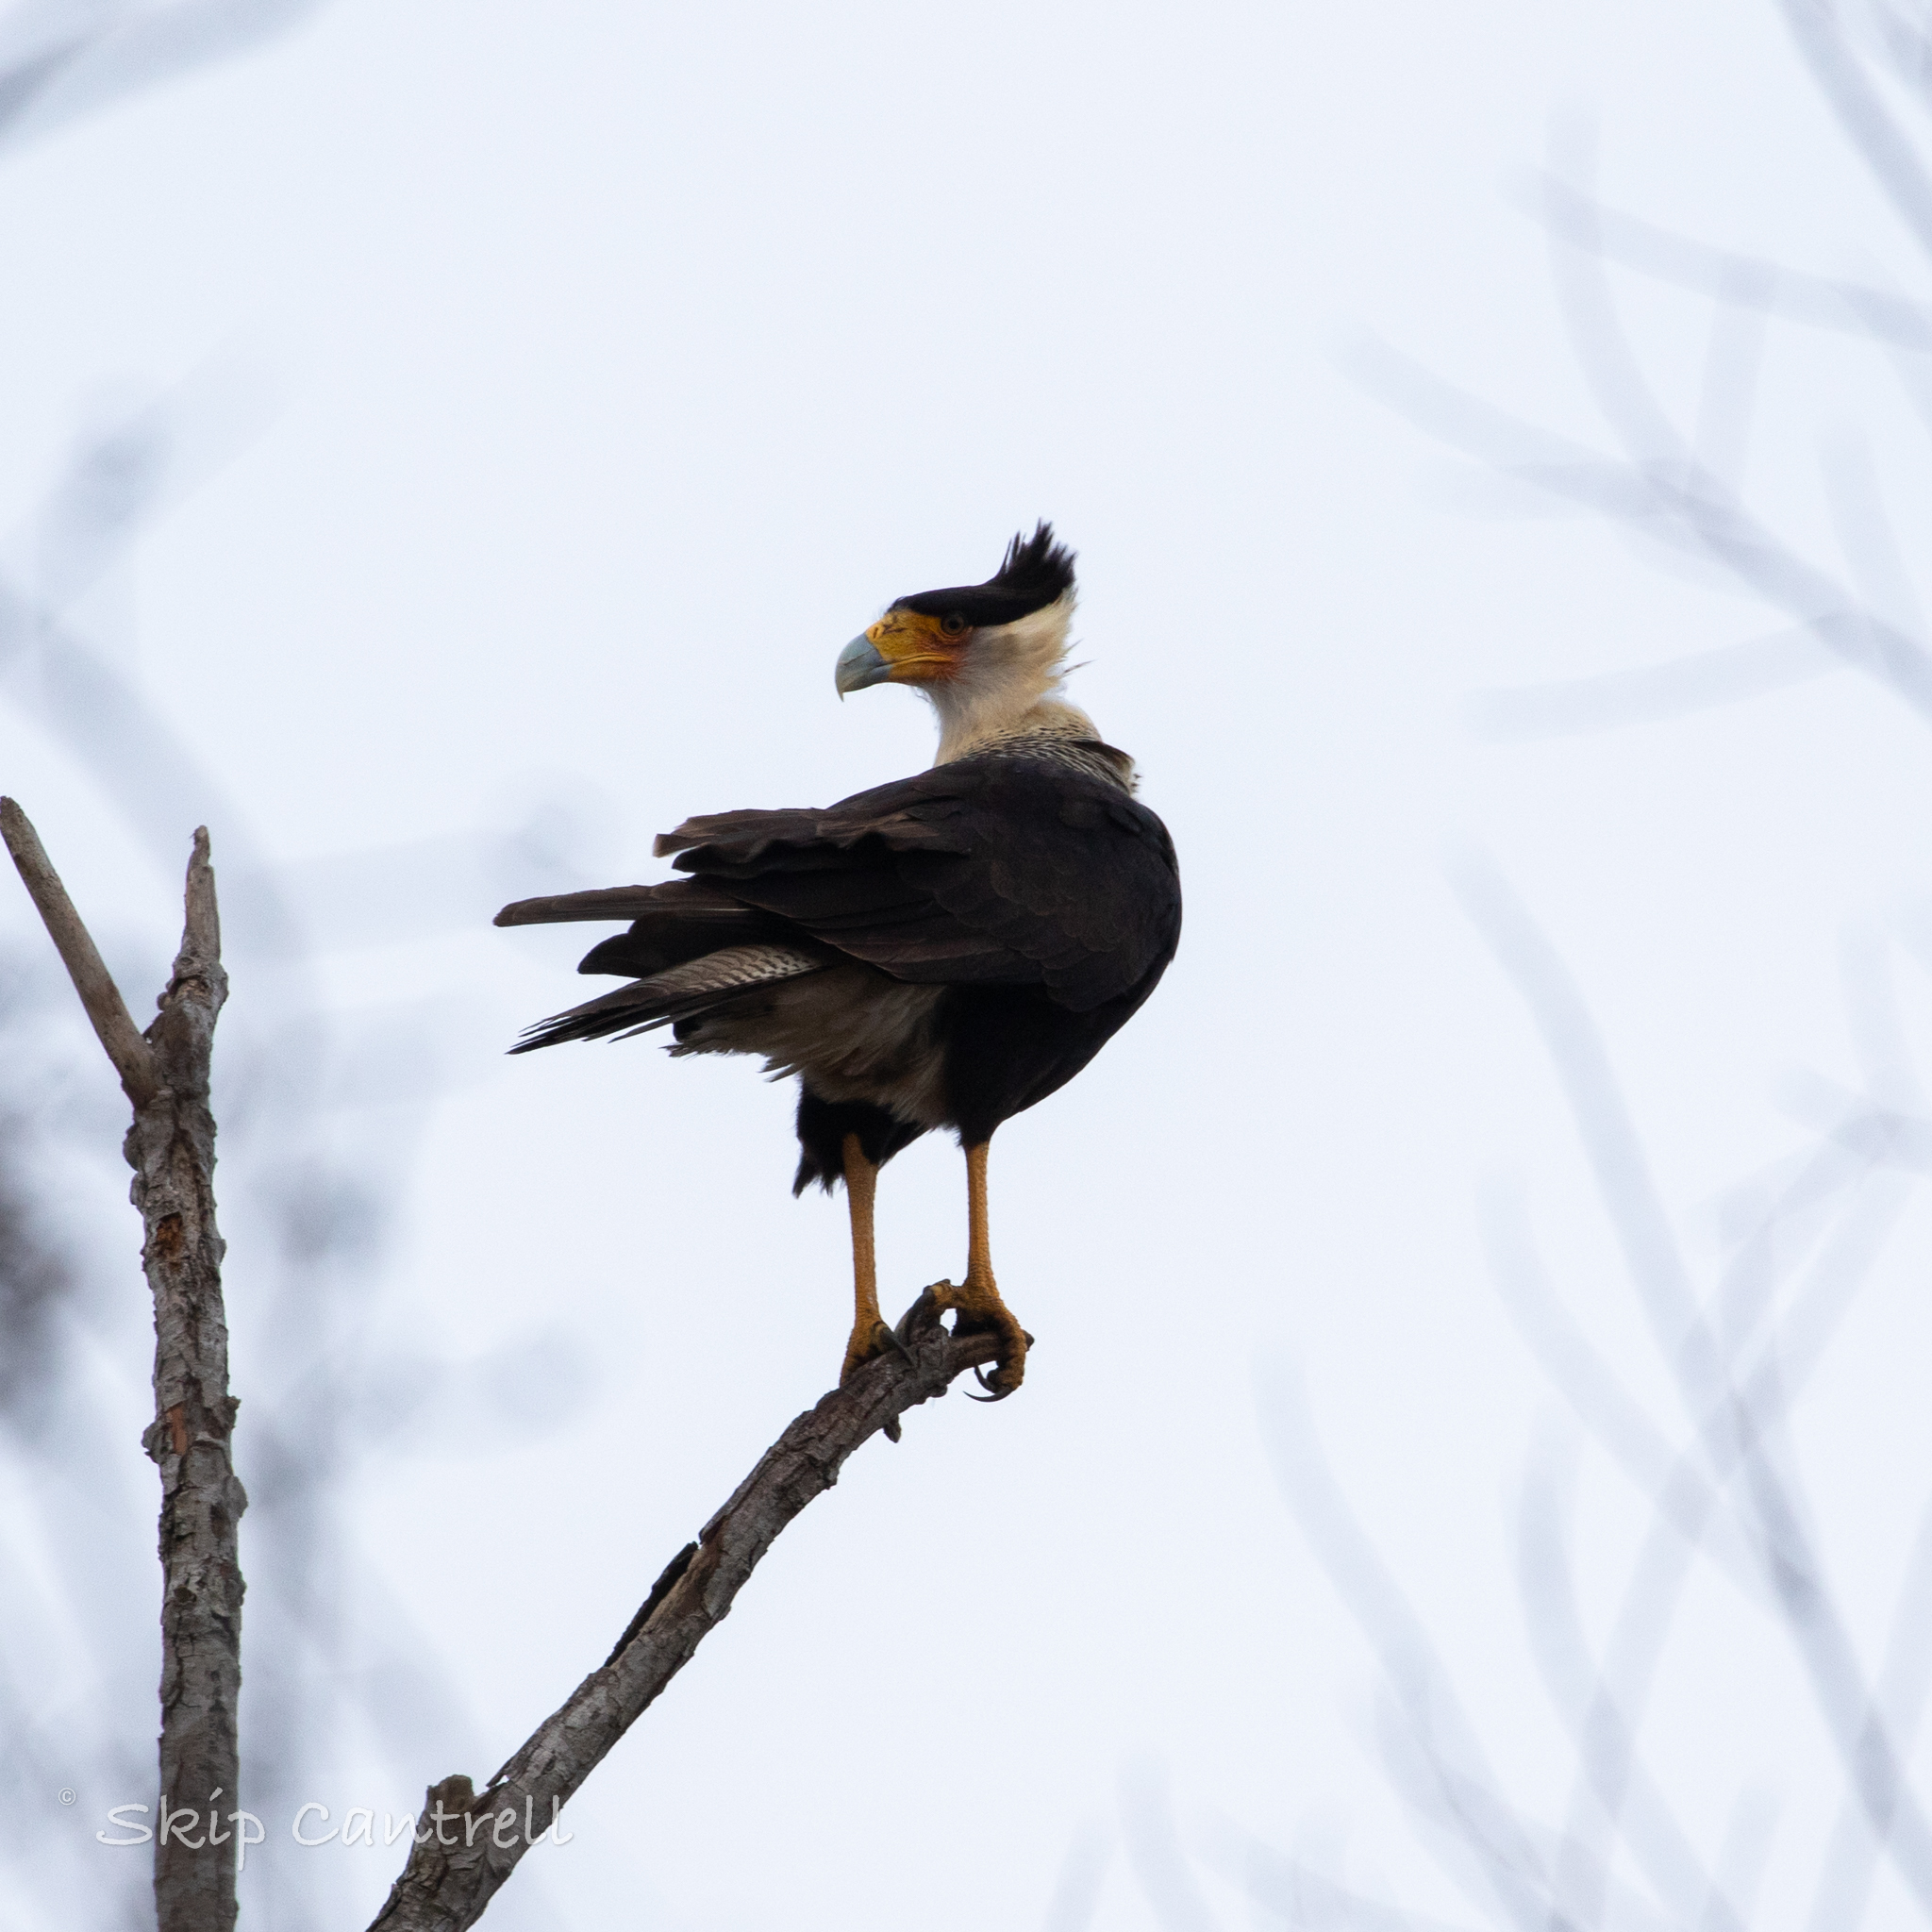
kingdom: Animalia
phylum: Chordata
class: Aves
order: Falconiformes
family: Falconidae
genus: Caracara
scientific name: Caracara plancus
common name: Southern caracara
